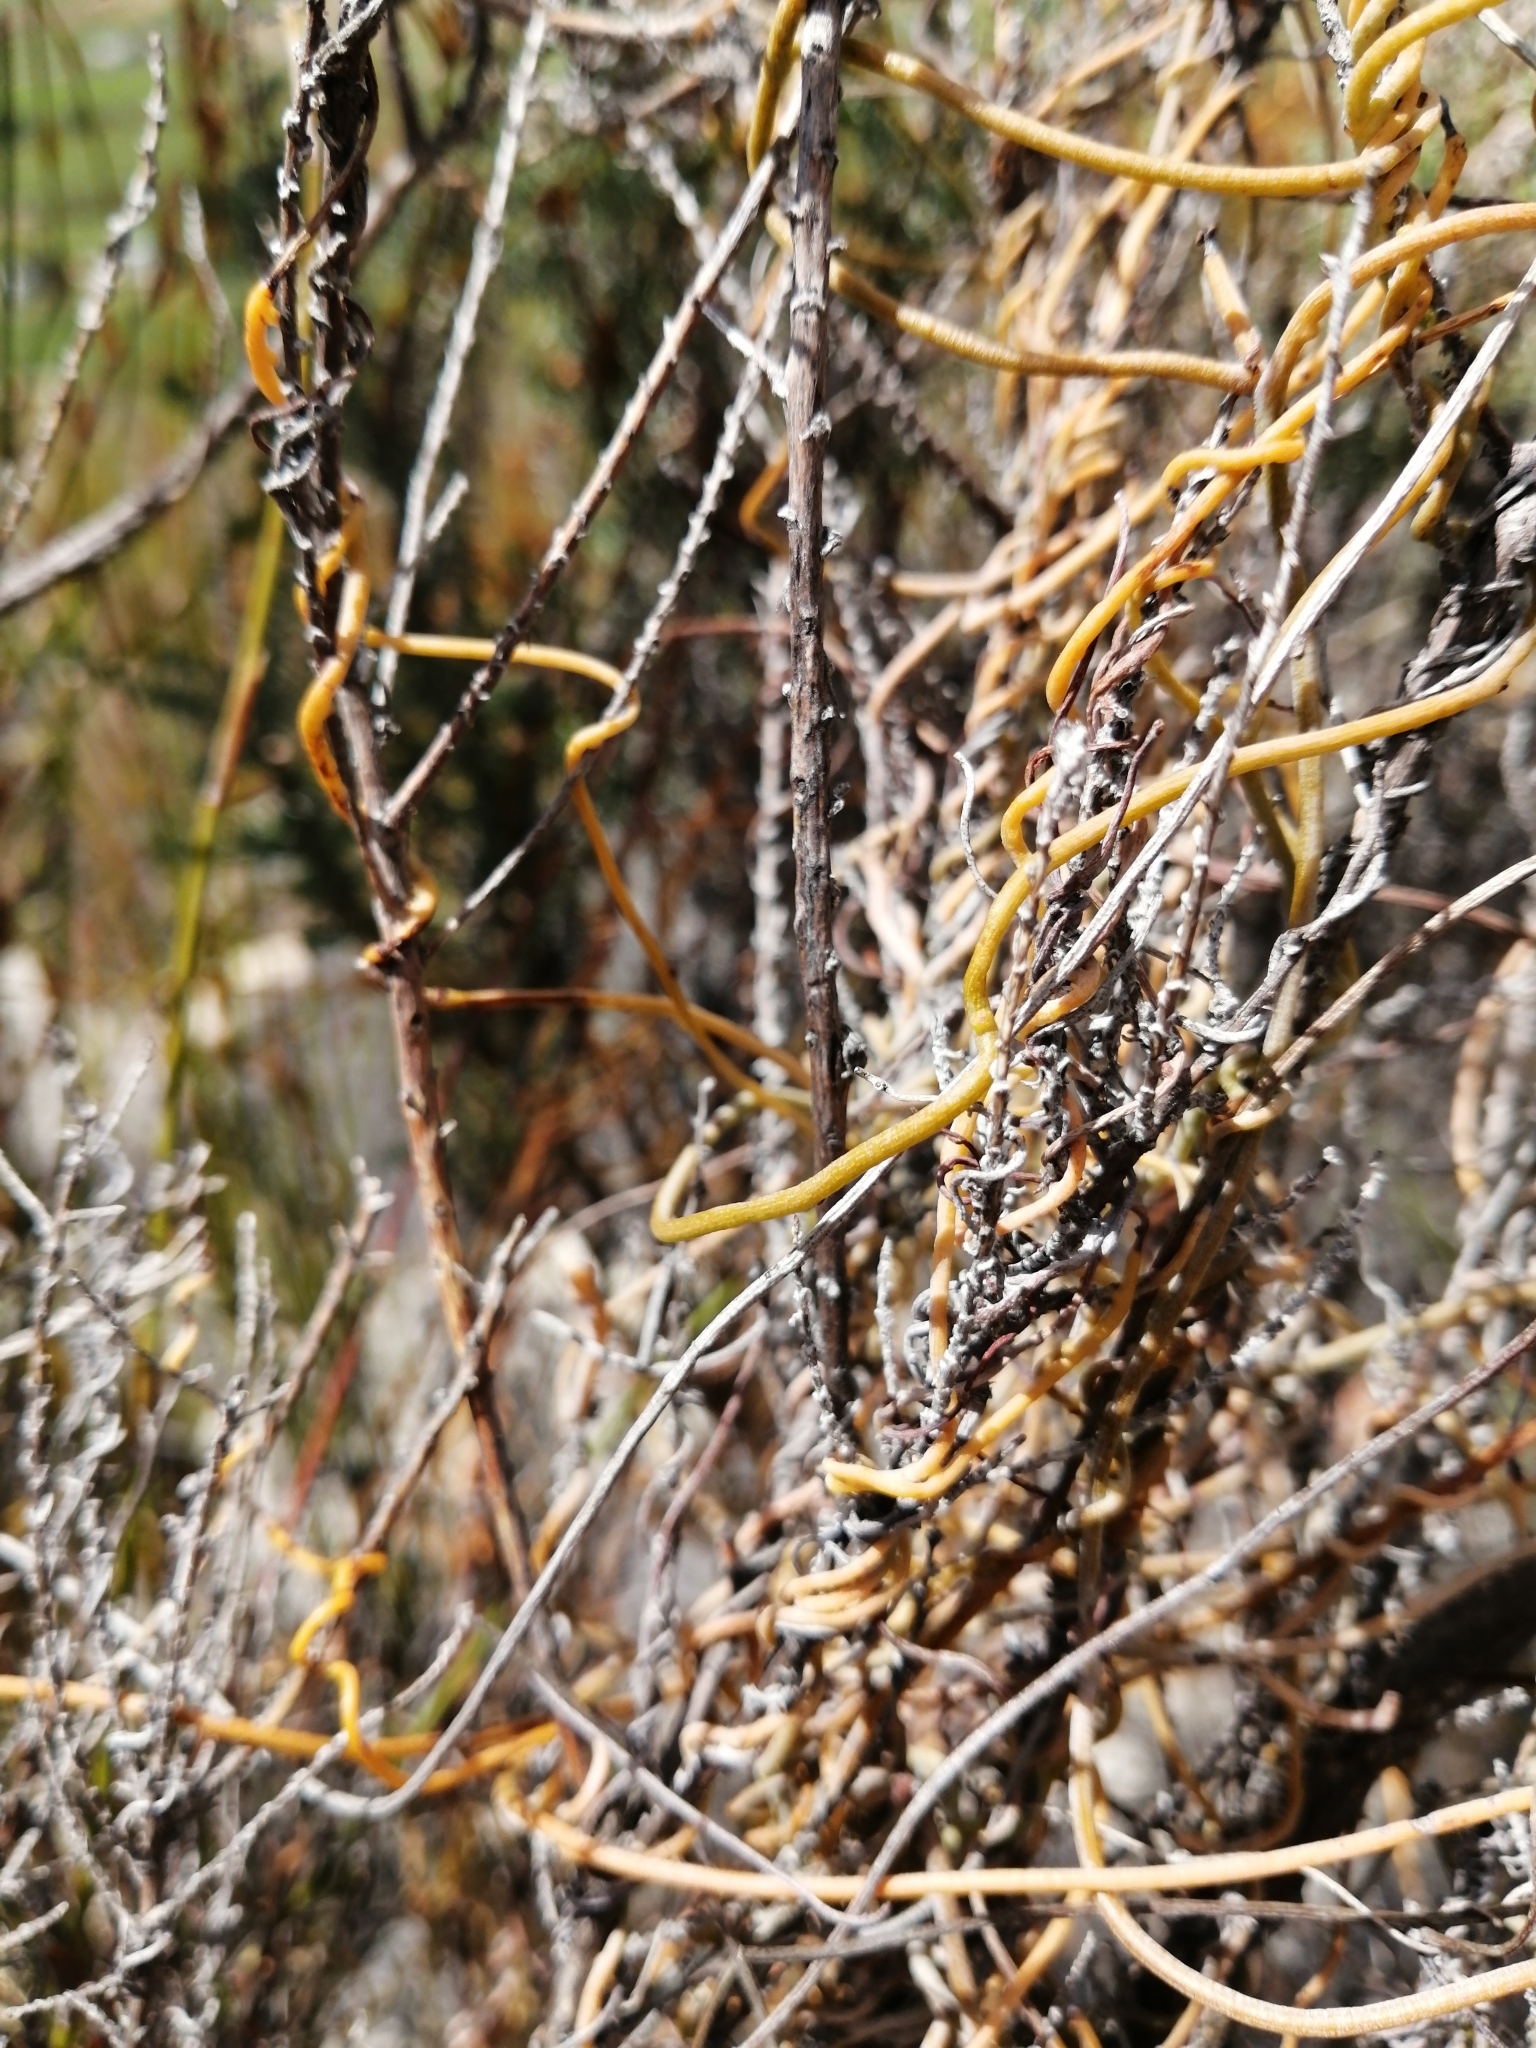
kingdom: Plantae
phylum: Tracheophyta
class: Magnoliopsida
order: Laurales
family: Lauraceae
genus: Cassytha
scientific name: Cassytha ciliolata
